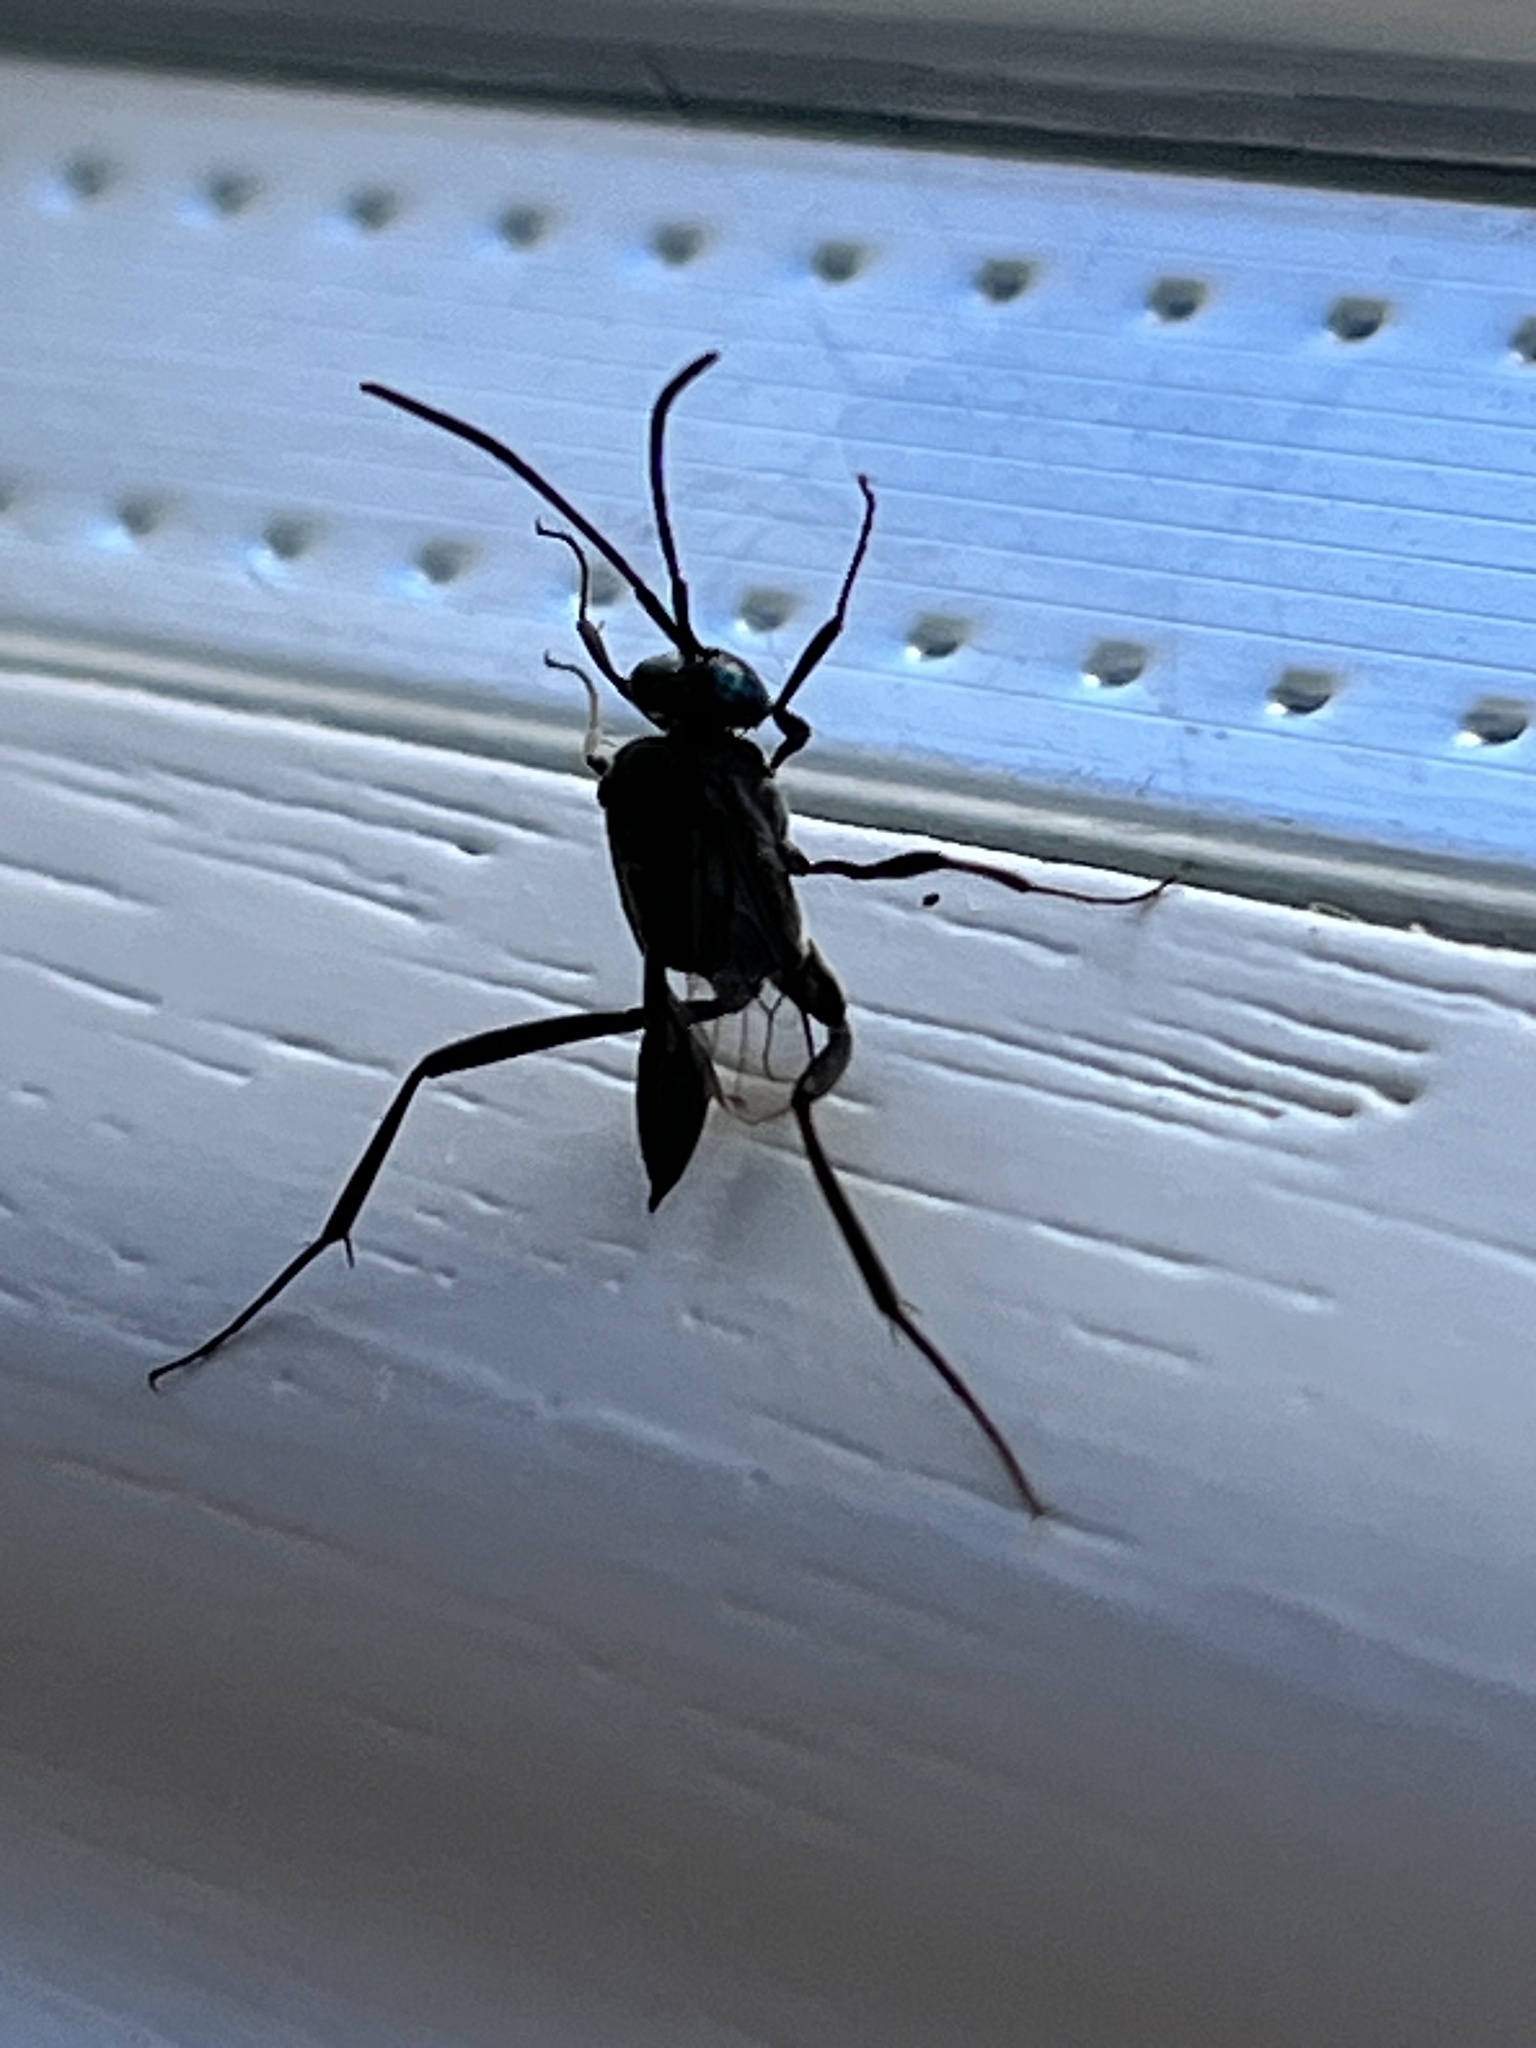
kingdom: Animalia
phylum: Arthropoda
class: Insecta
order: Hymenoptera
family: Evaniidae
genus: Evania
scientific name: Evania appendigaster
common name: Ensign wasp
